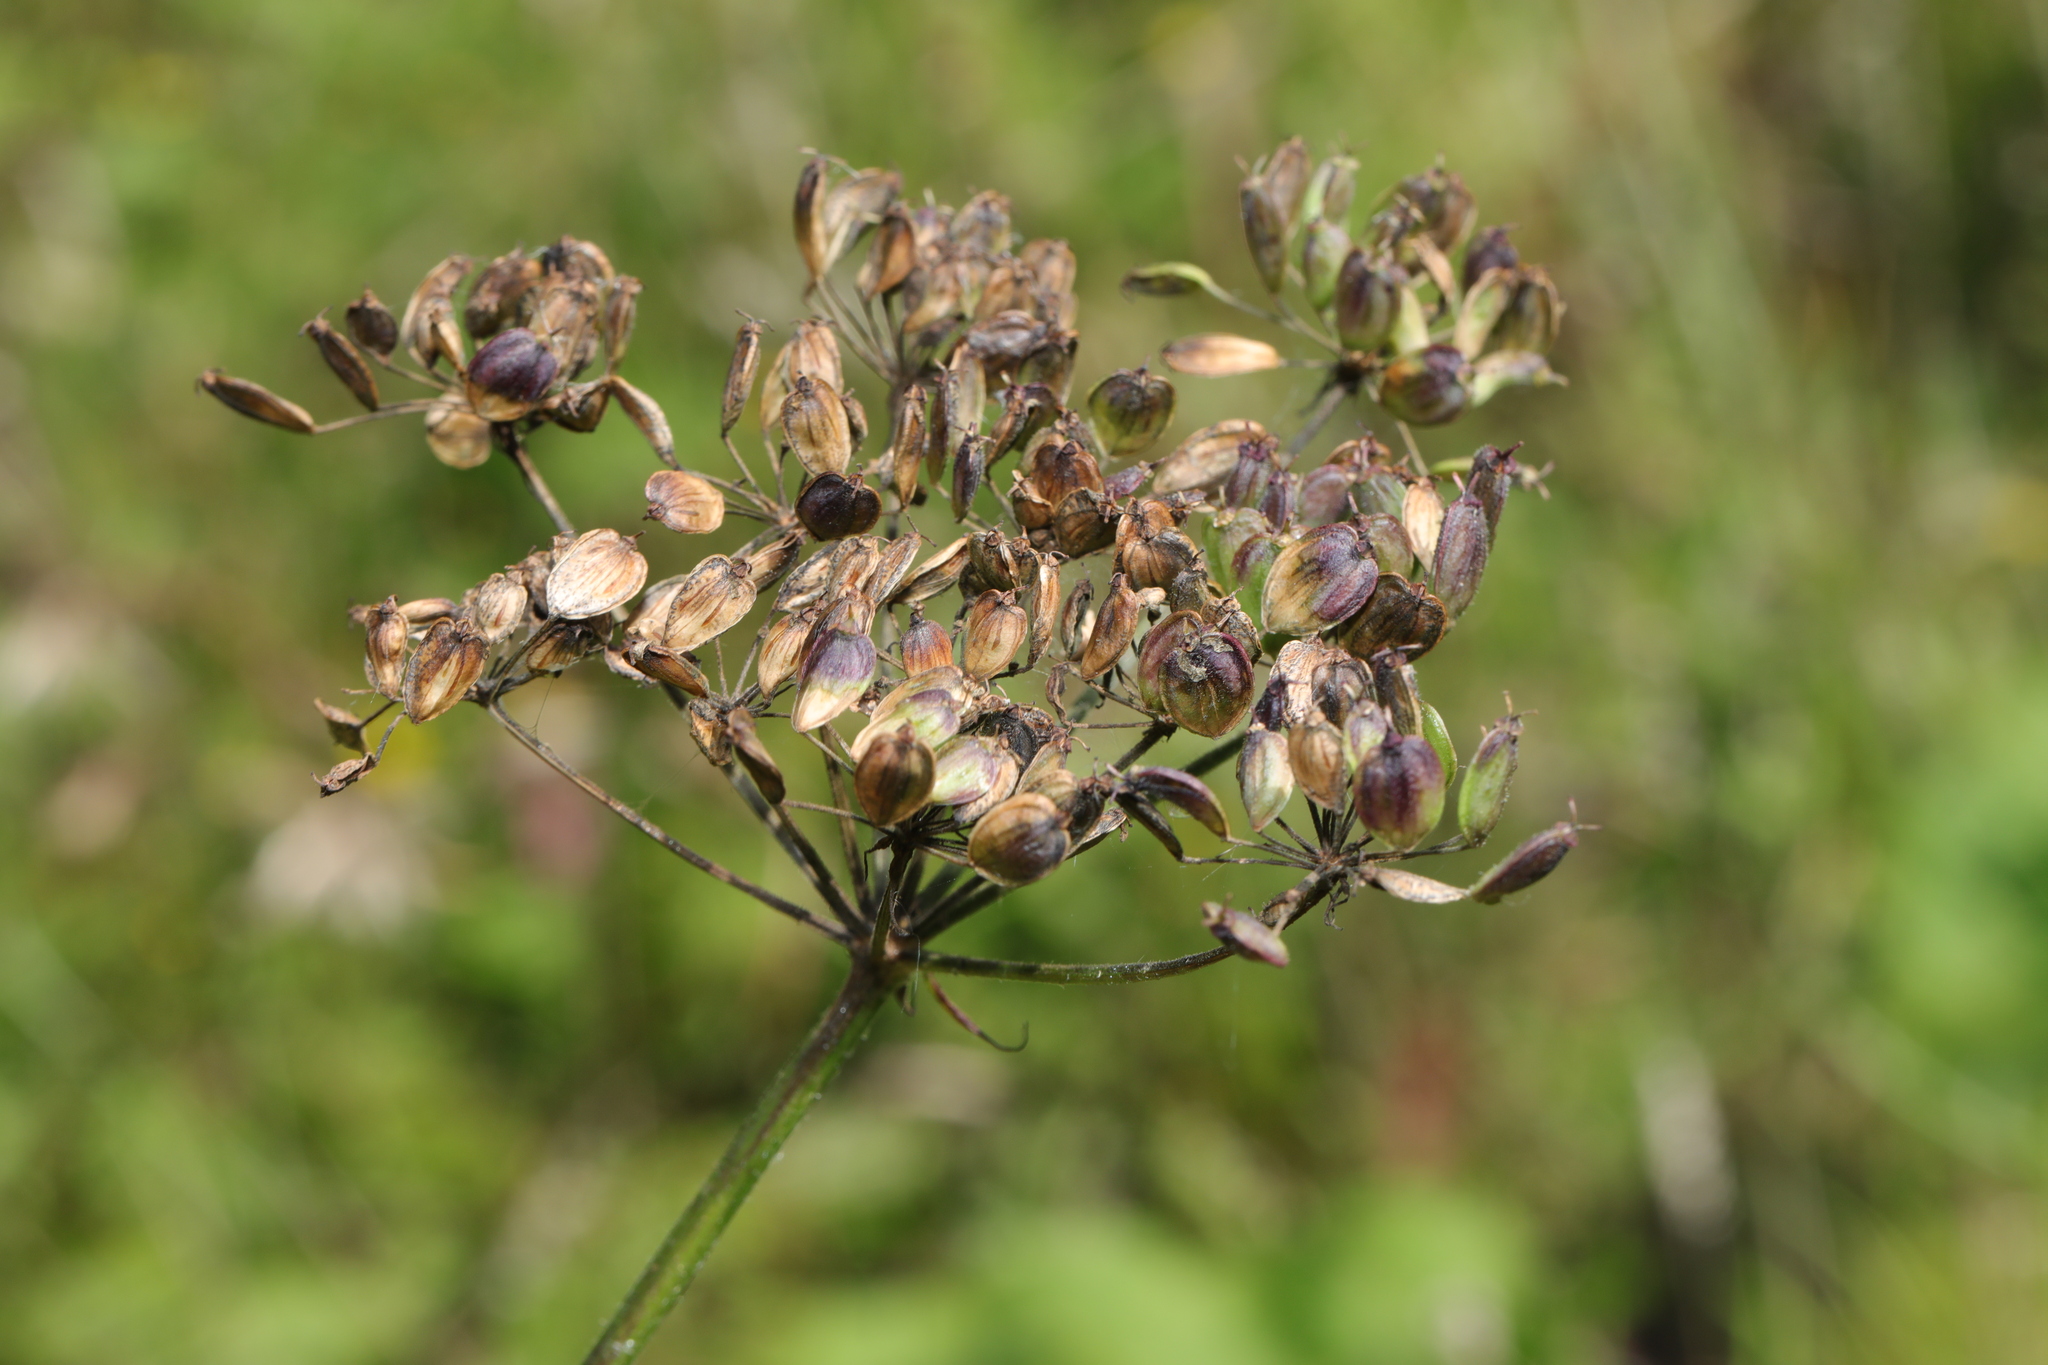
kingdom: Plantae
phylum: Tracheophyta
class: Magnoliopsida
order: Apiales
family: Apiaceae
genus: Heracleum
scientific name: Heracleum sphondylium
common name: Hogweed
